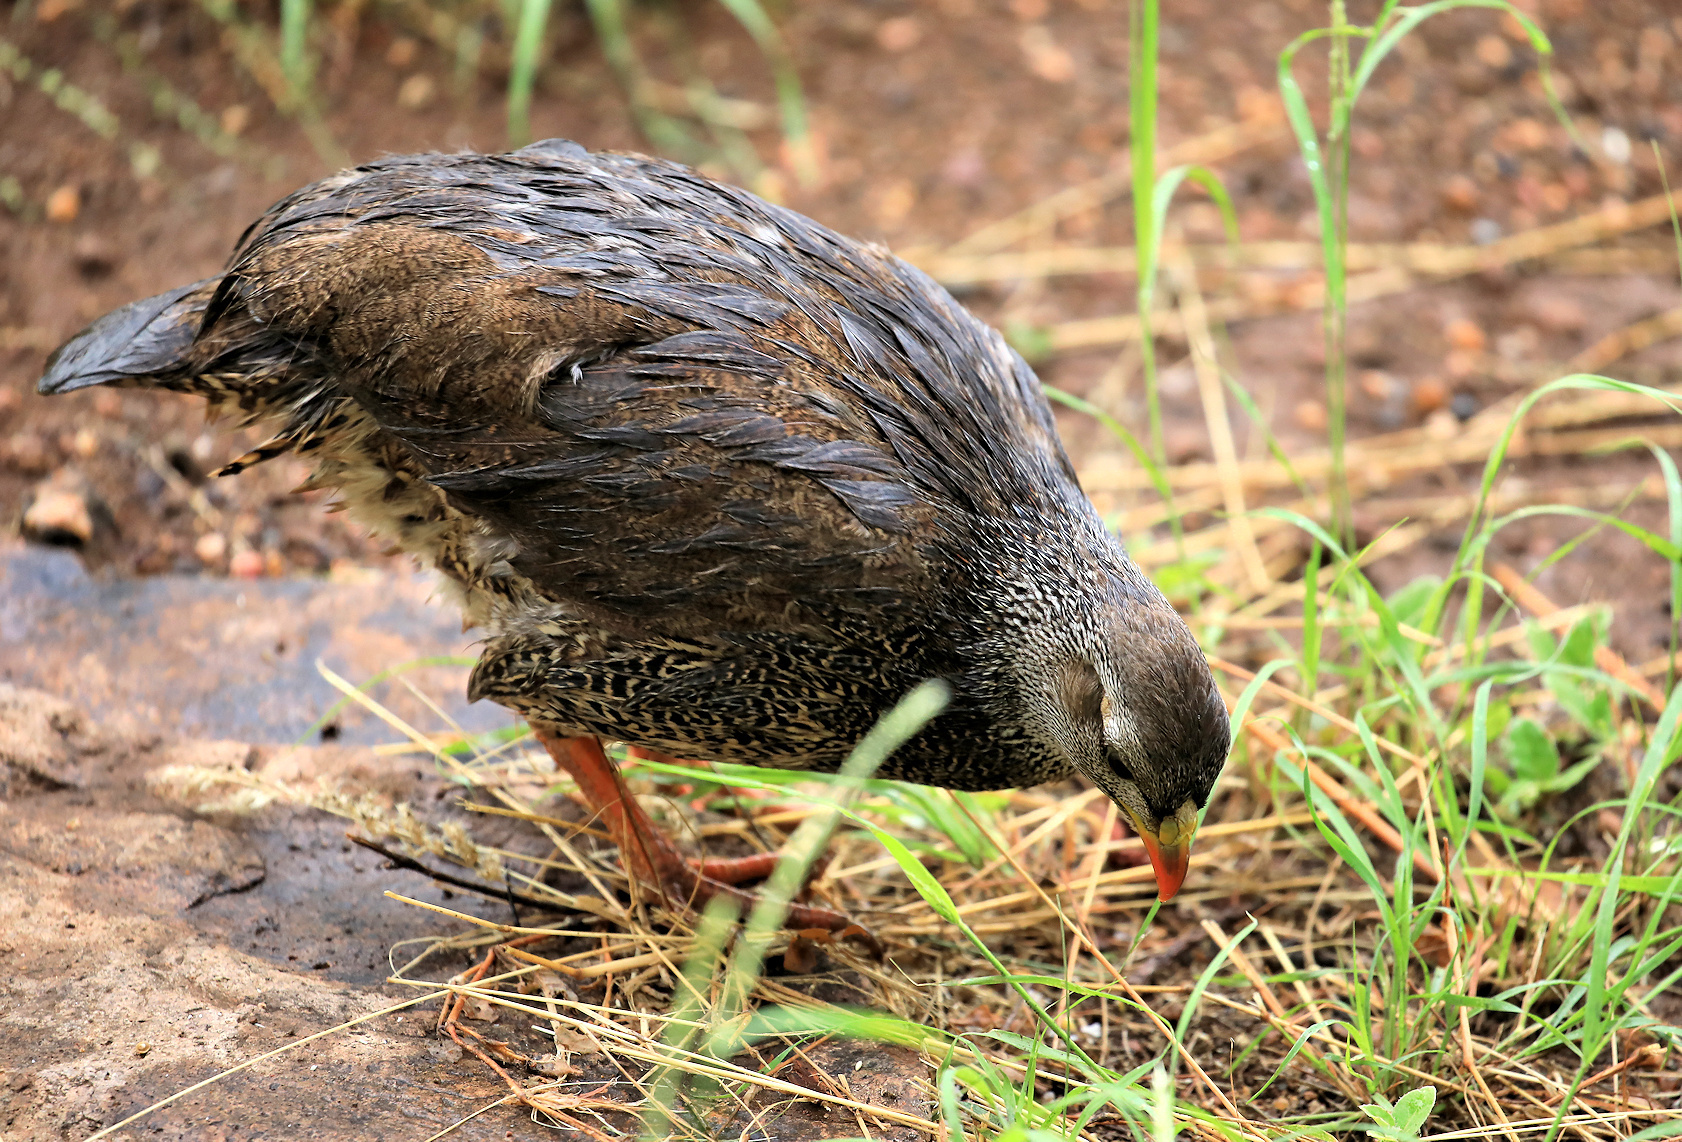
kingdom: Animalia
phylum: Chordata
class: Aves
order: Galliformes
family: Phasianidae
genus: Pternistis
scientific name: Pternistis natalensis
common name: Natal spurfowl
